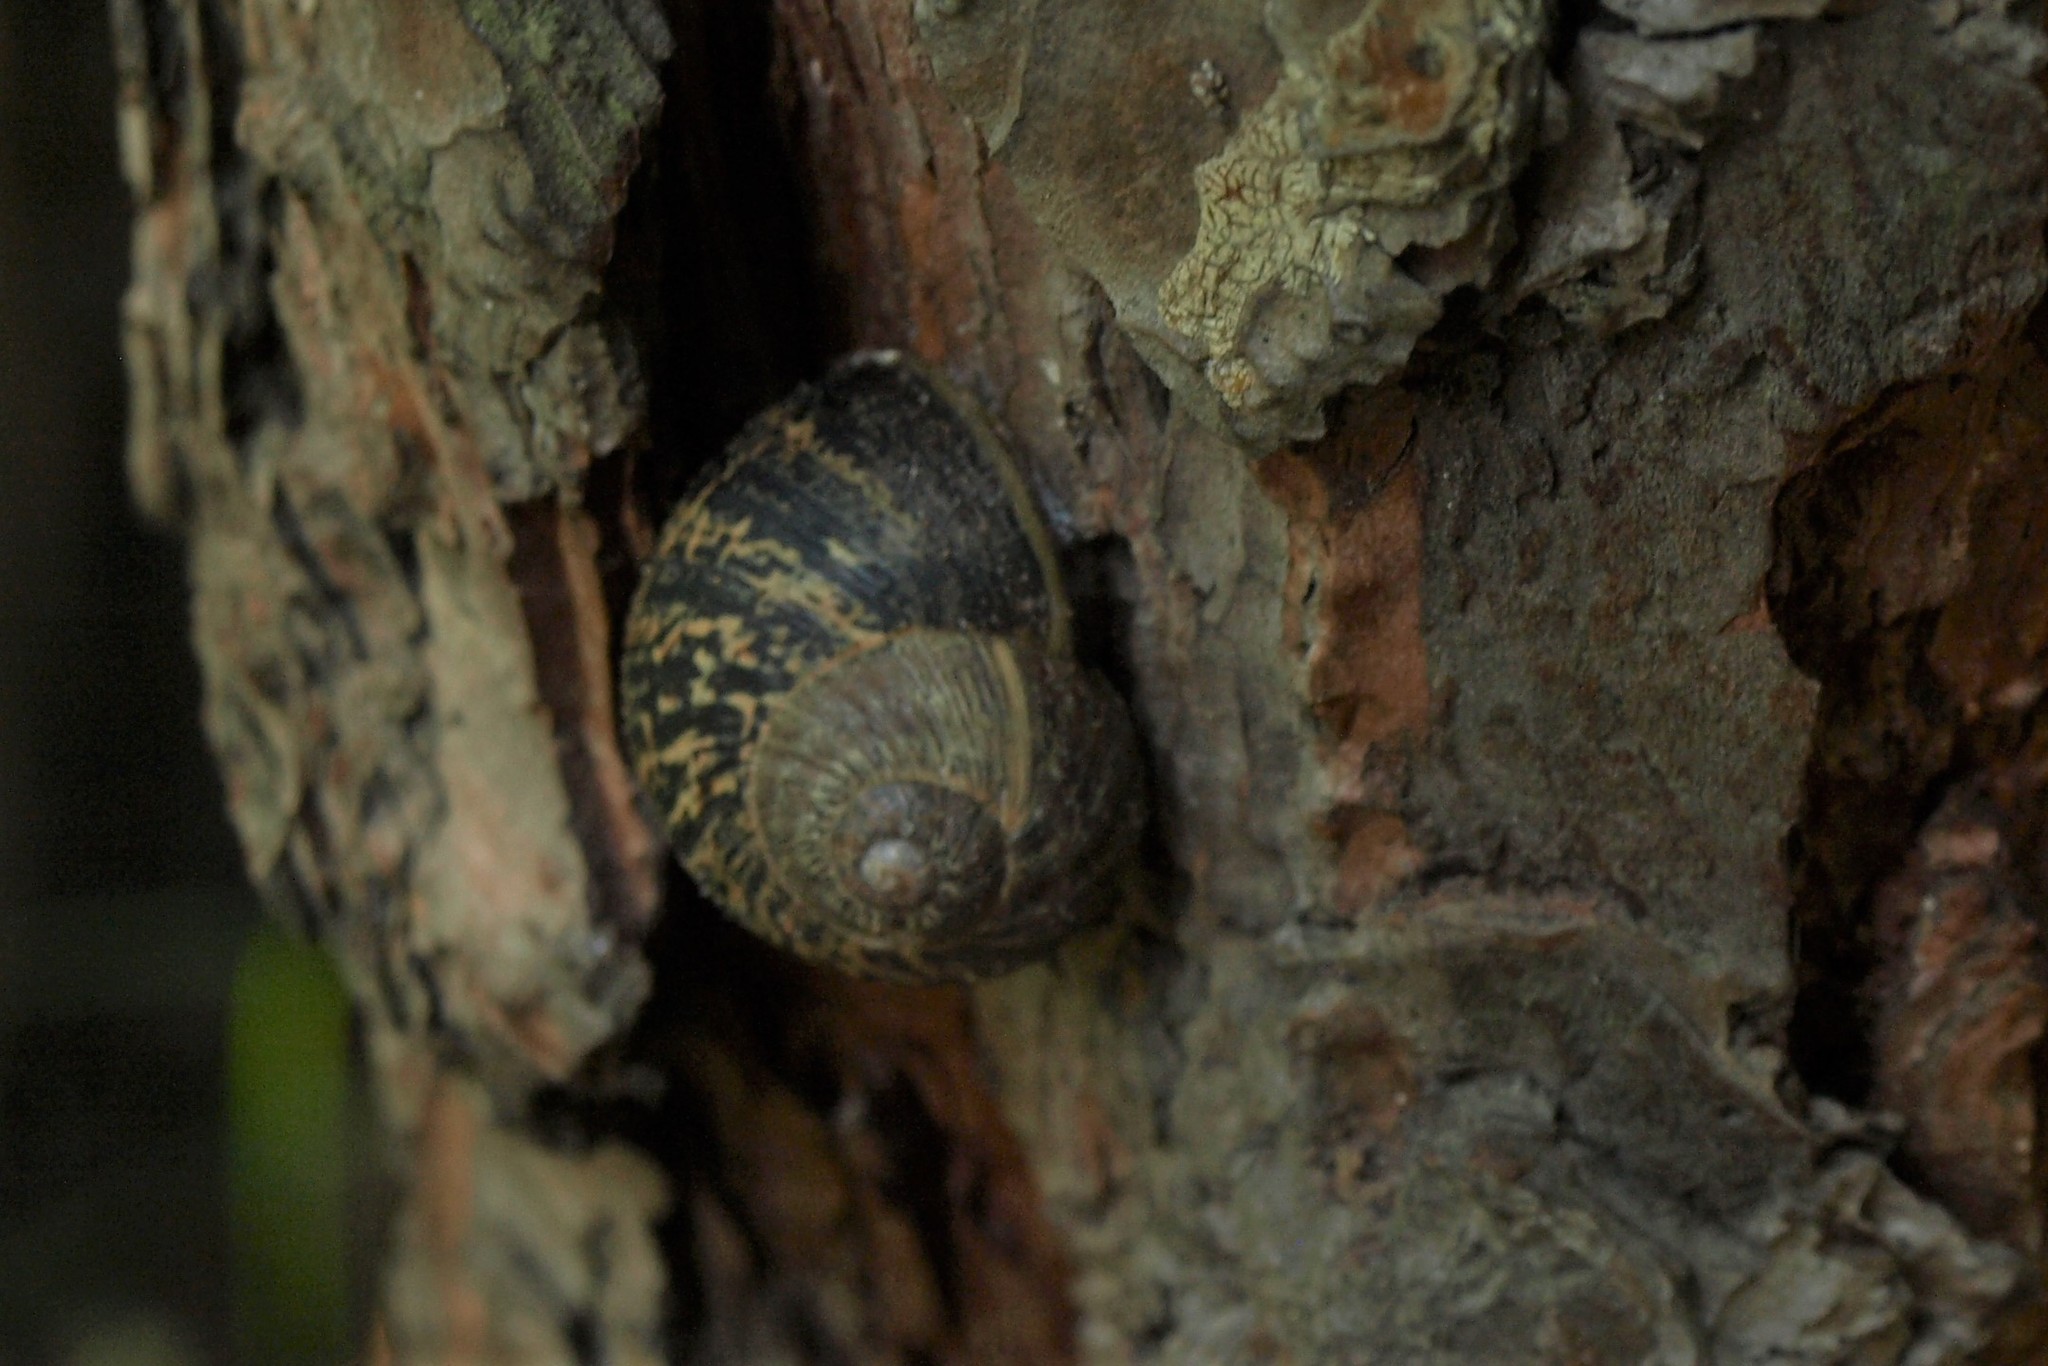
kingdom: Animalia
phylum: Mollusca
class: Gastropoda
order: Stylommatophora
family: Helicidae
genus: Cornu
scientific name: Cornu aspersum
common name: Brown garden snail
